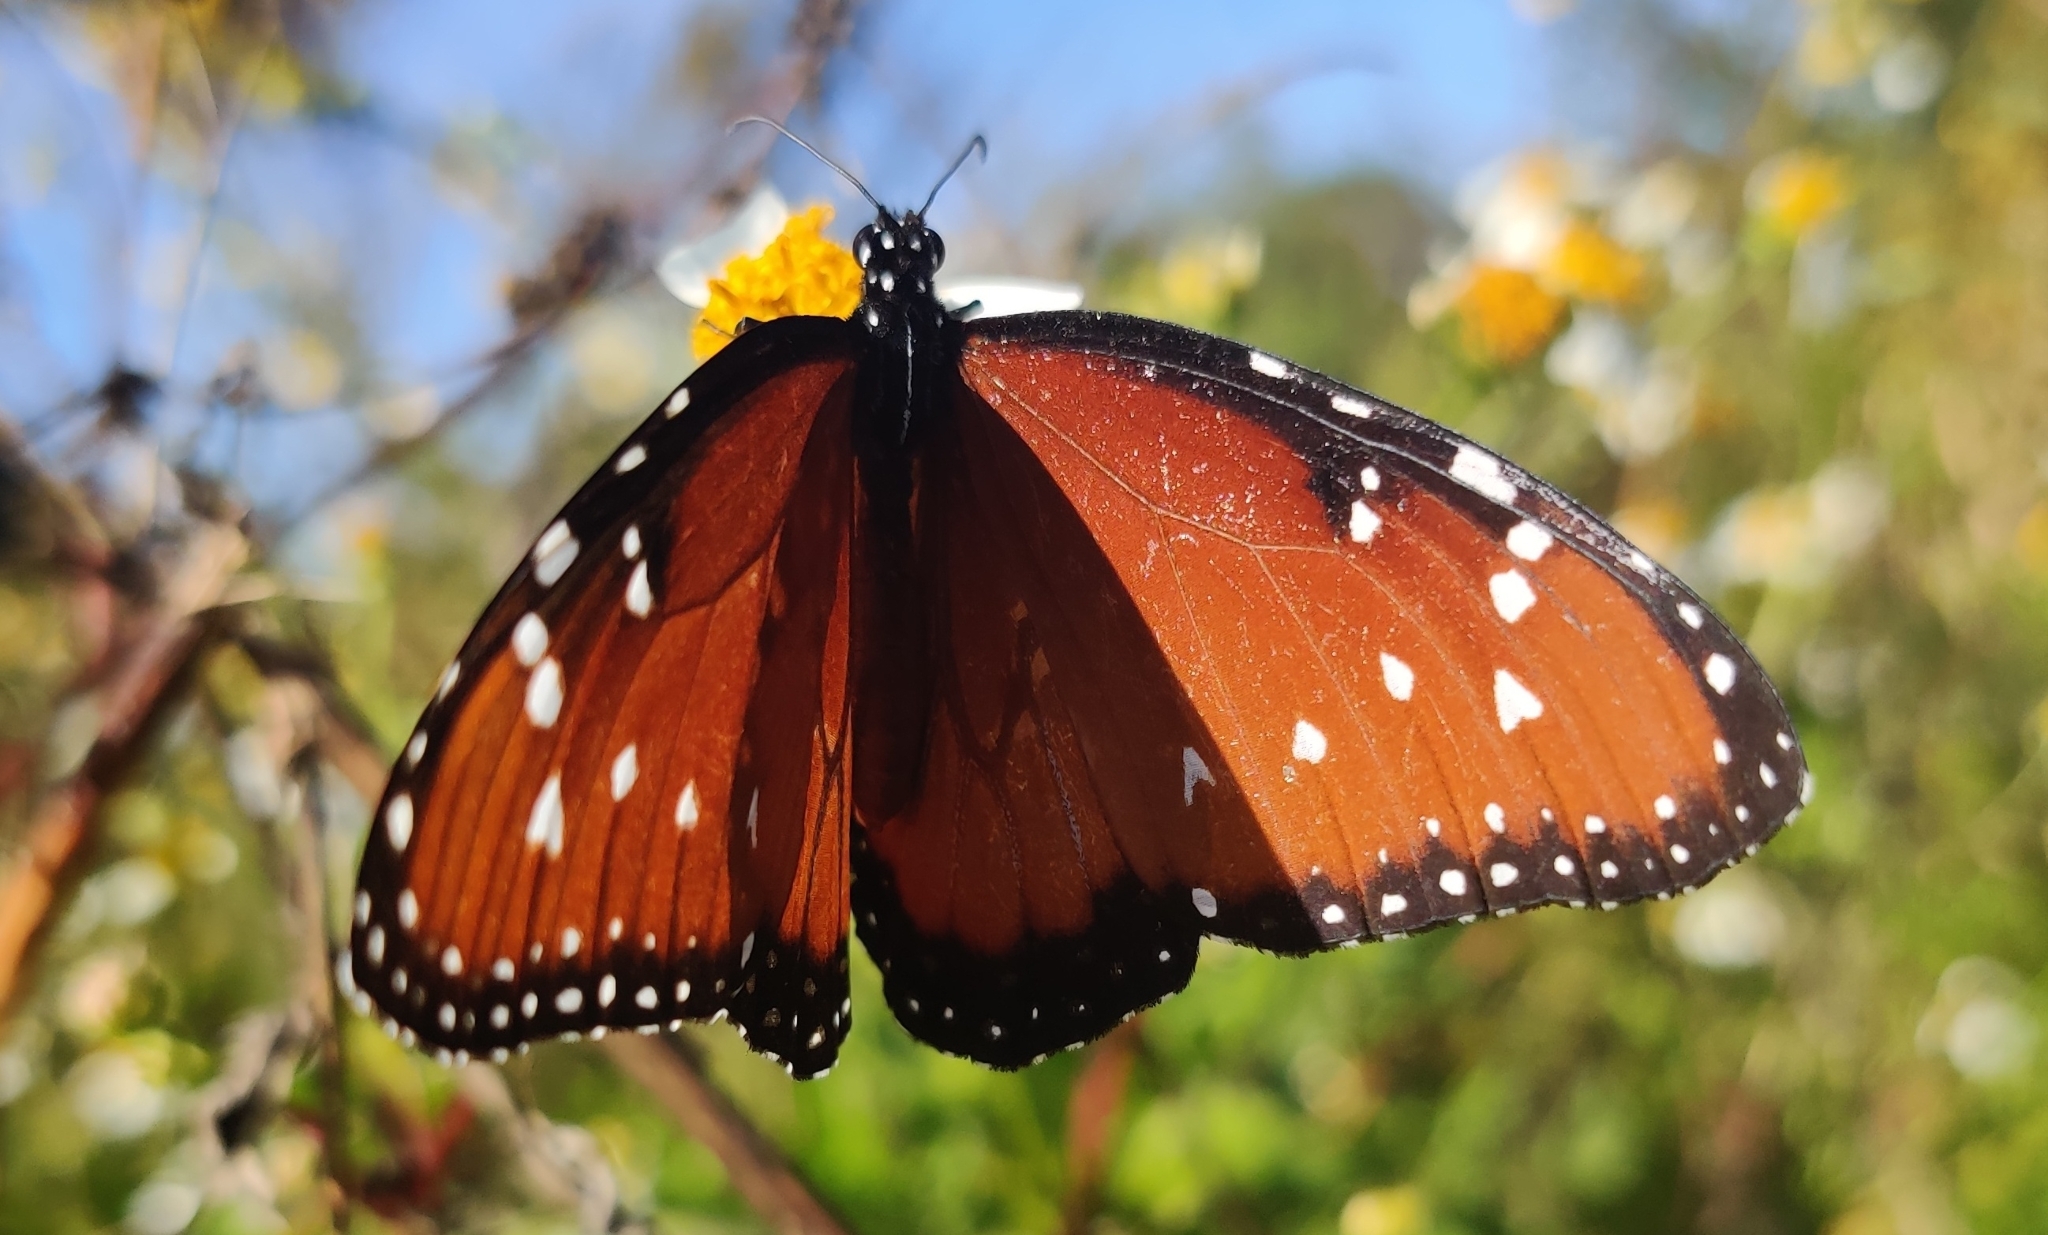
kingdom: Animalia
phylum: Arthropoda
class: Insecta
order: Lepidoptera
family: Nymphalidae
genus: Danaus
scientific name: Danaus gilippus
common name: Queen
